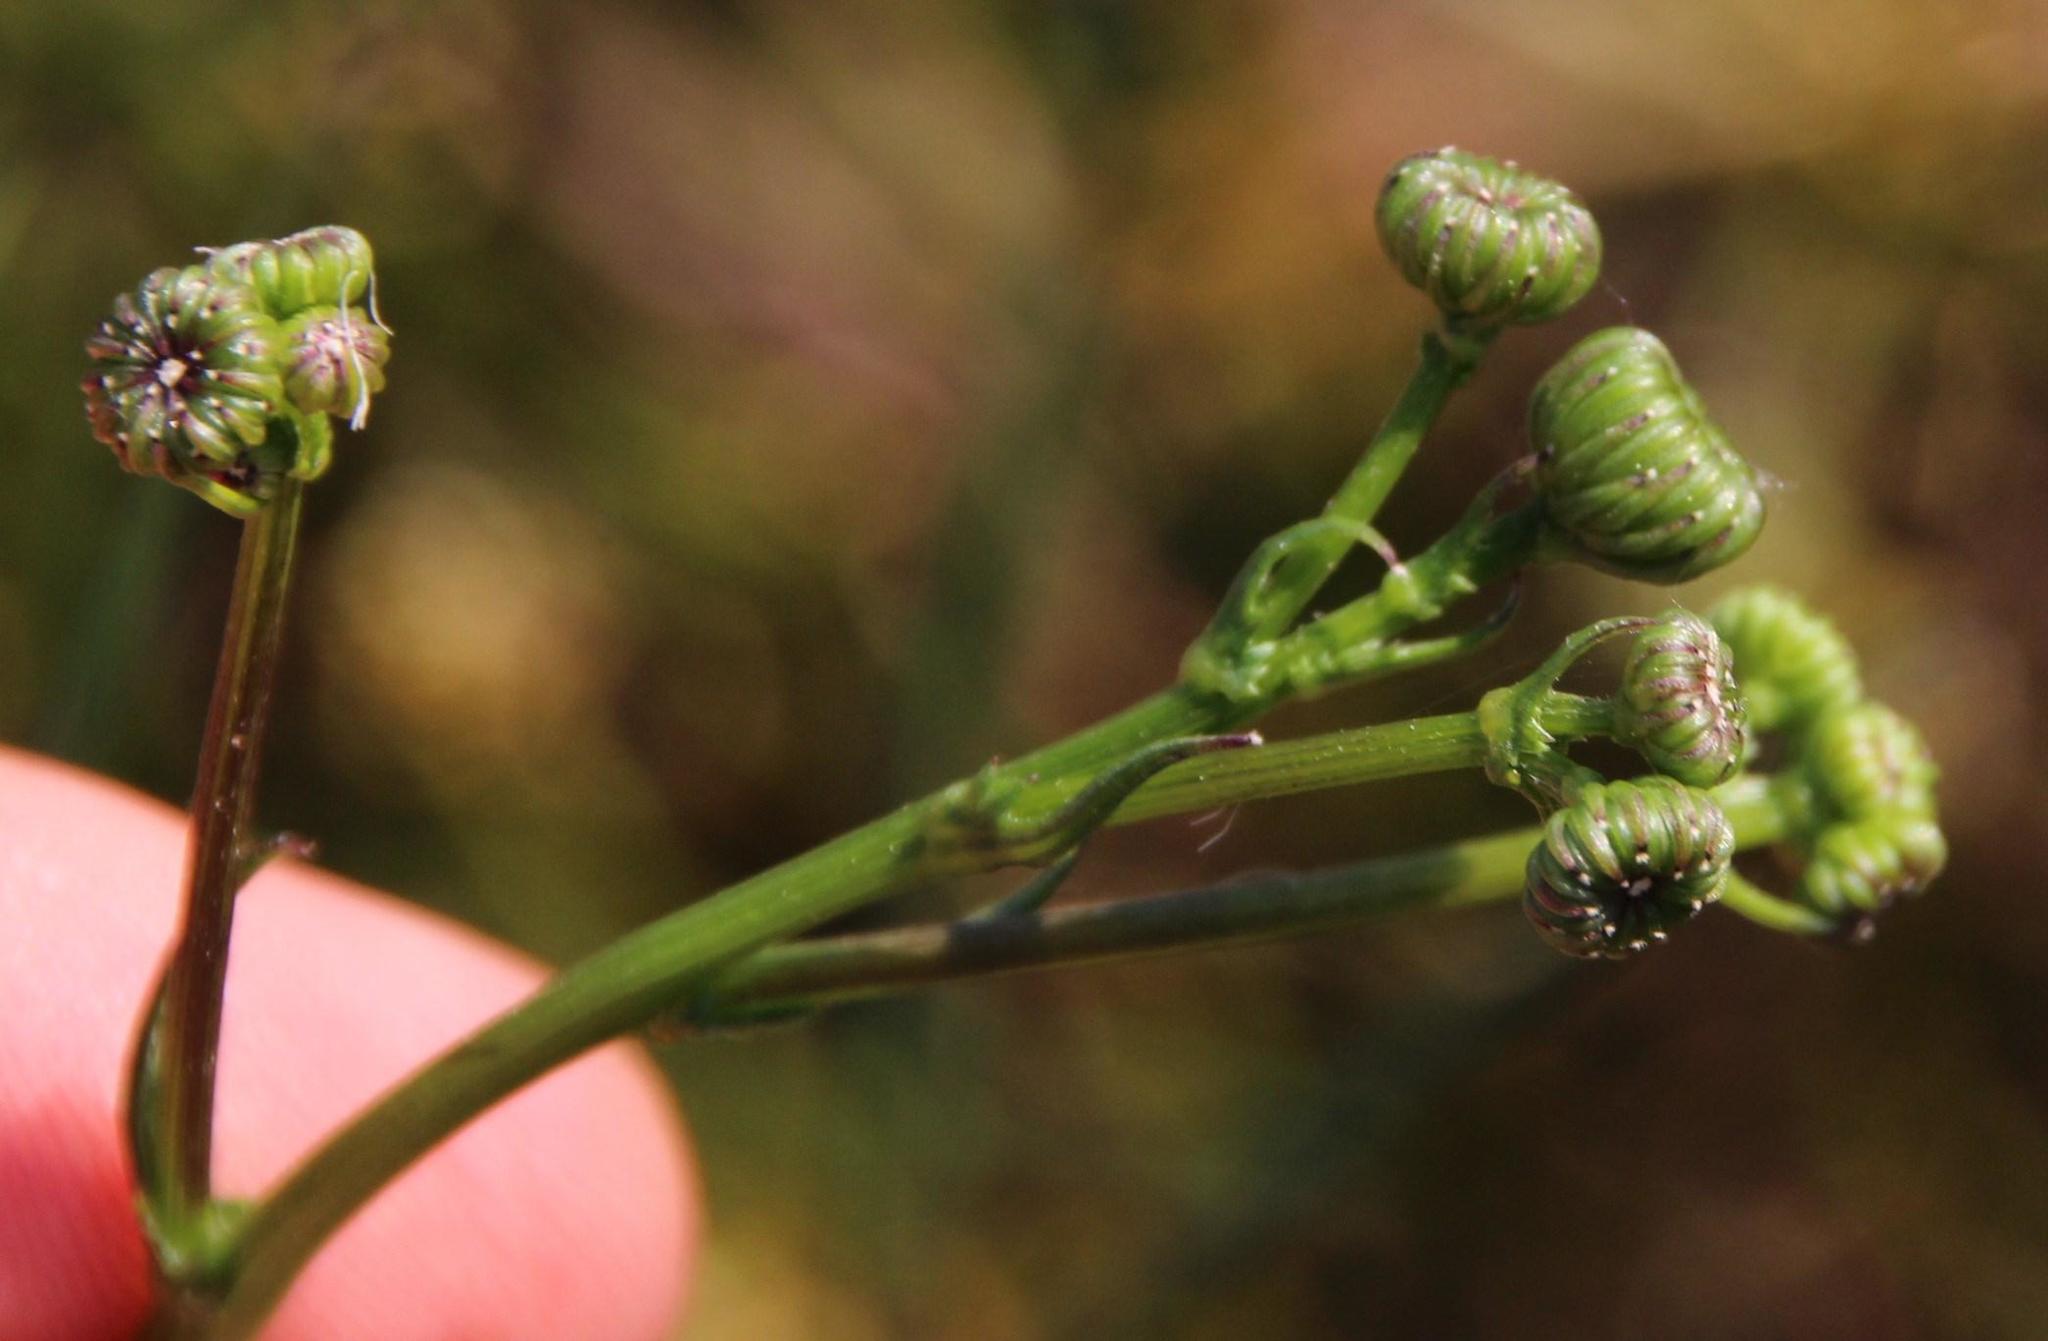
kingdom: Plantae
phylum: Tracheophyta
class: Magnoliopsida
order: Asterales
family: Asteraceae
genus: Senecio
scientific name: Senecio umbellatus
